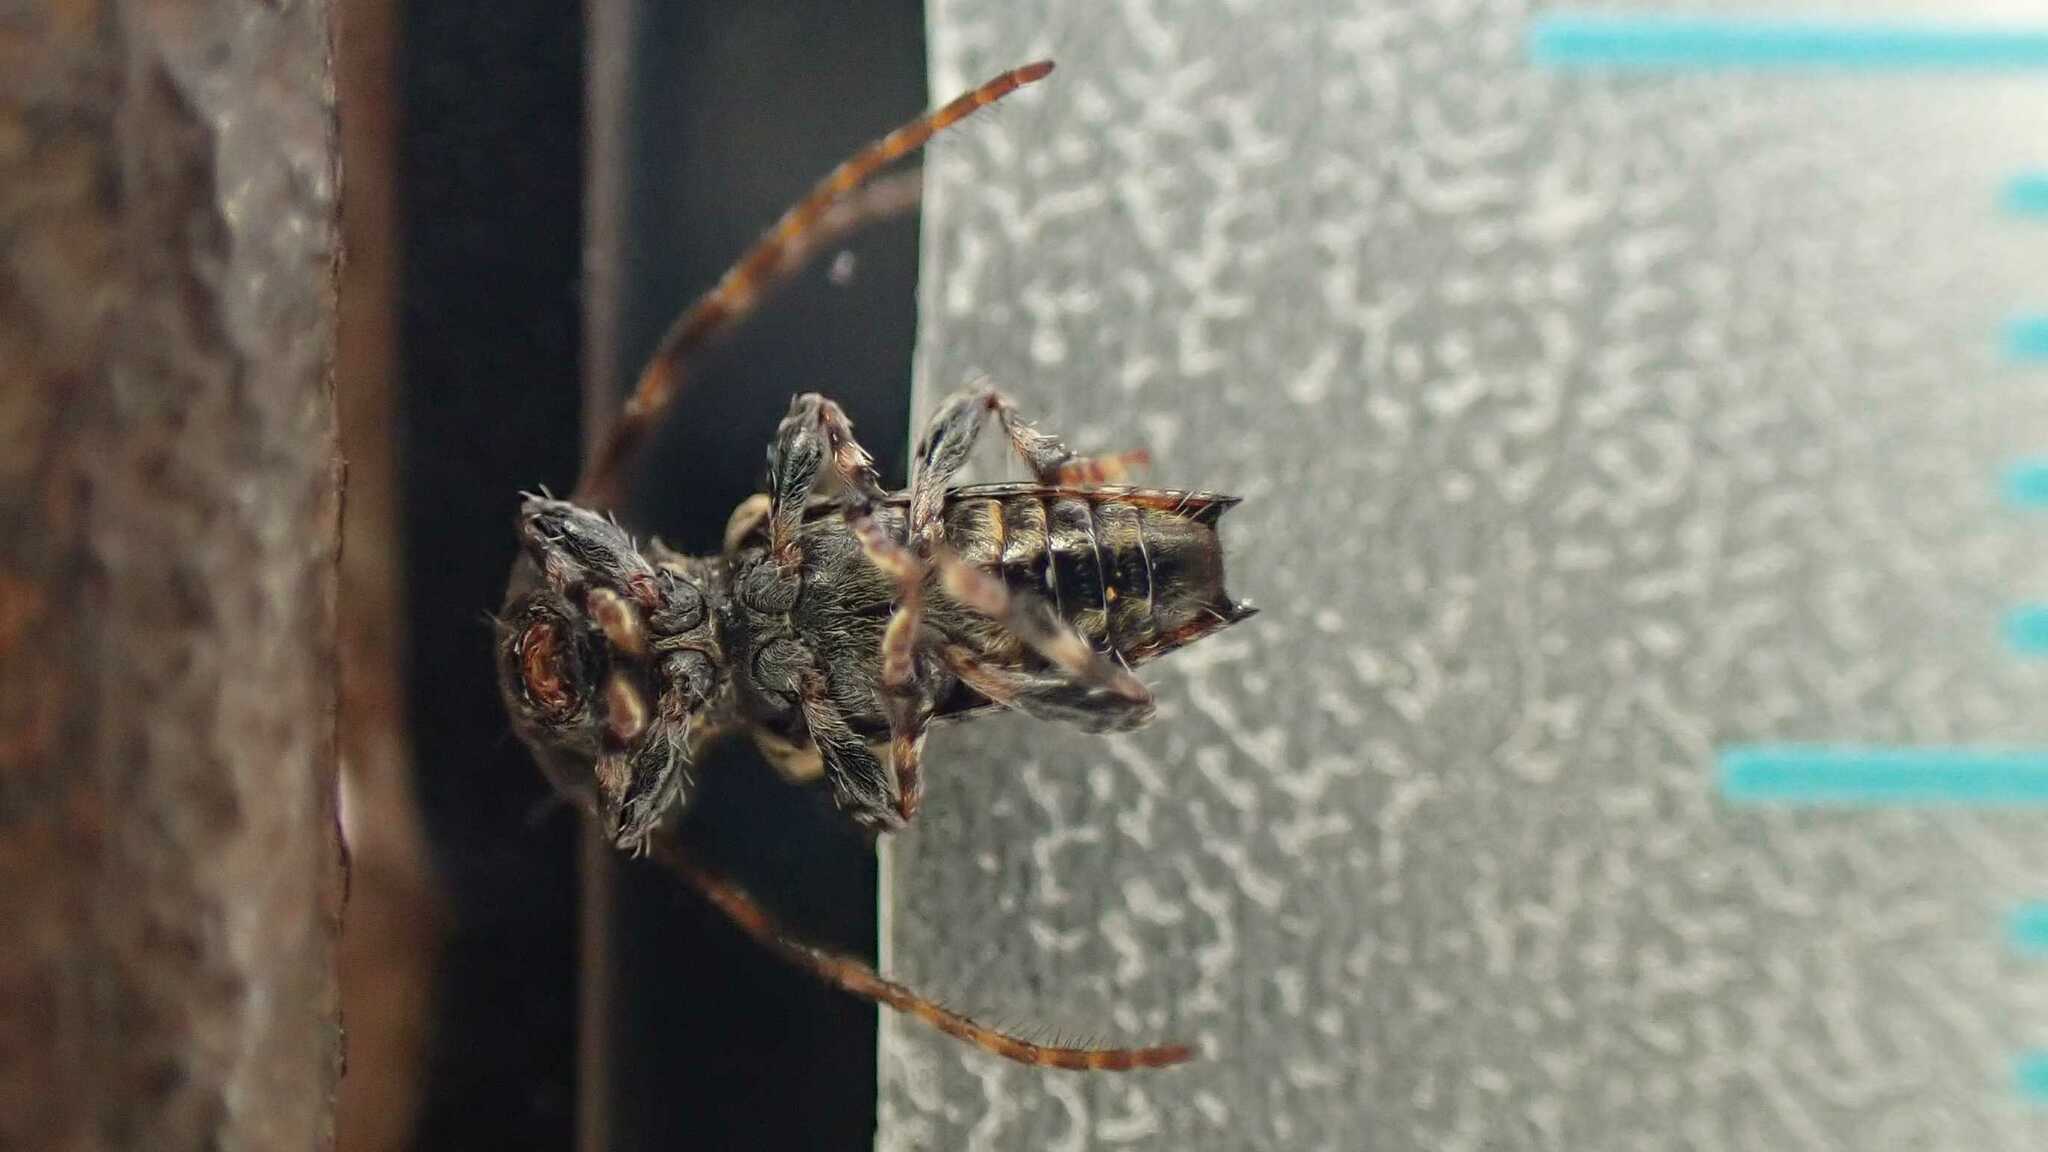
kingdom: Animalia
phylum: Arthropoda
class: Insecta
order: Coleoptera
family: Cerambycidae
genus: Pogonocherus
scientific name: Pogonocherus hispidus
